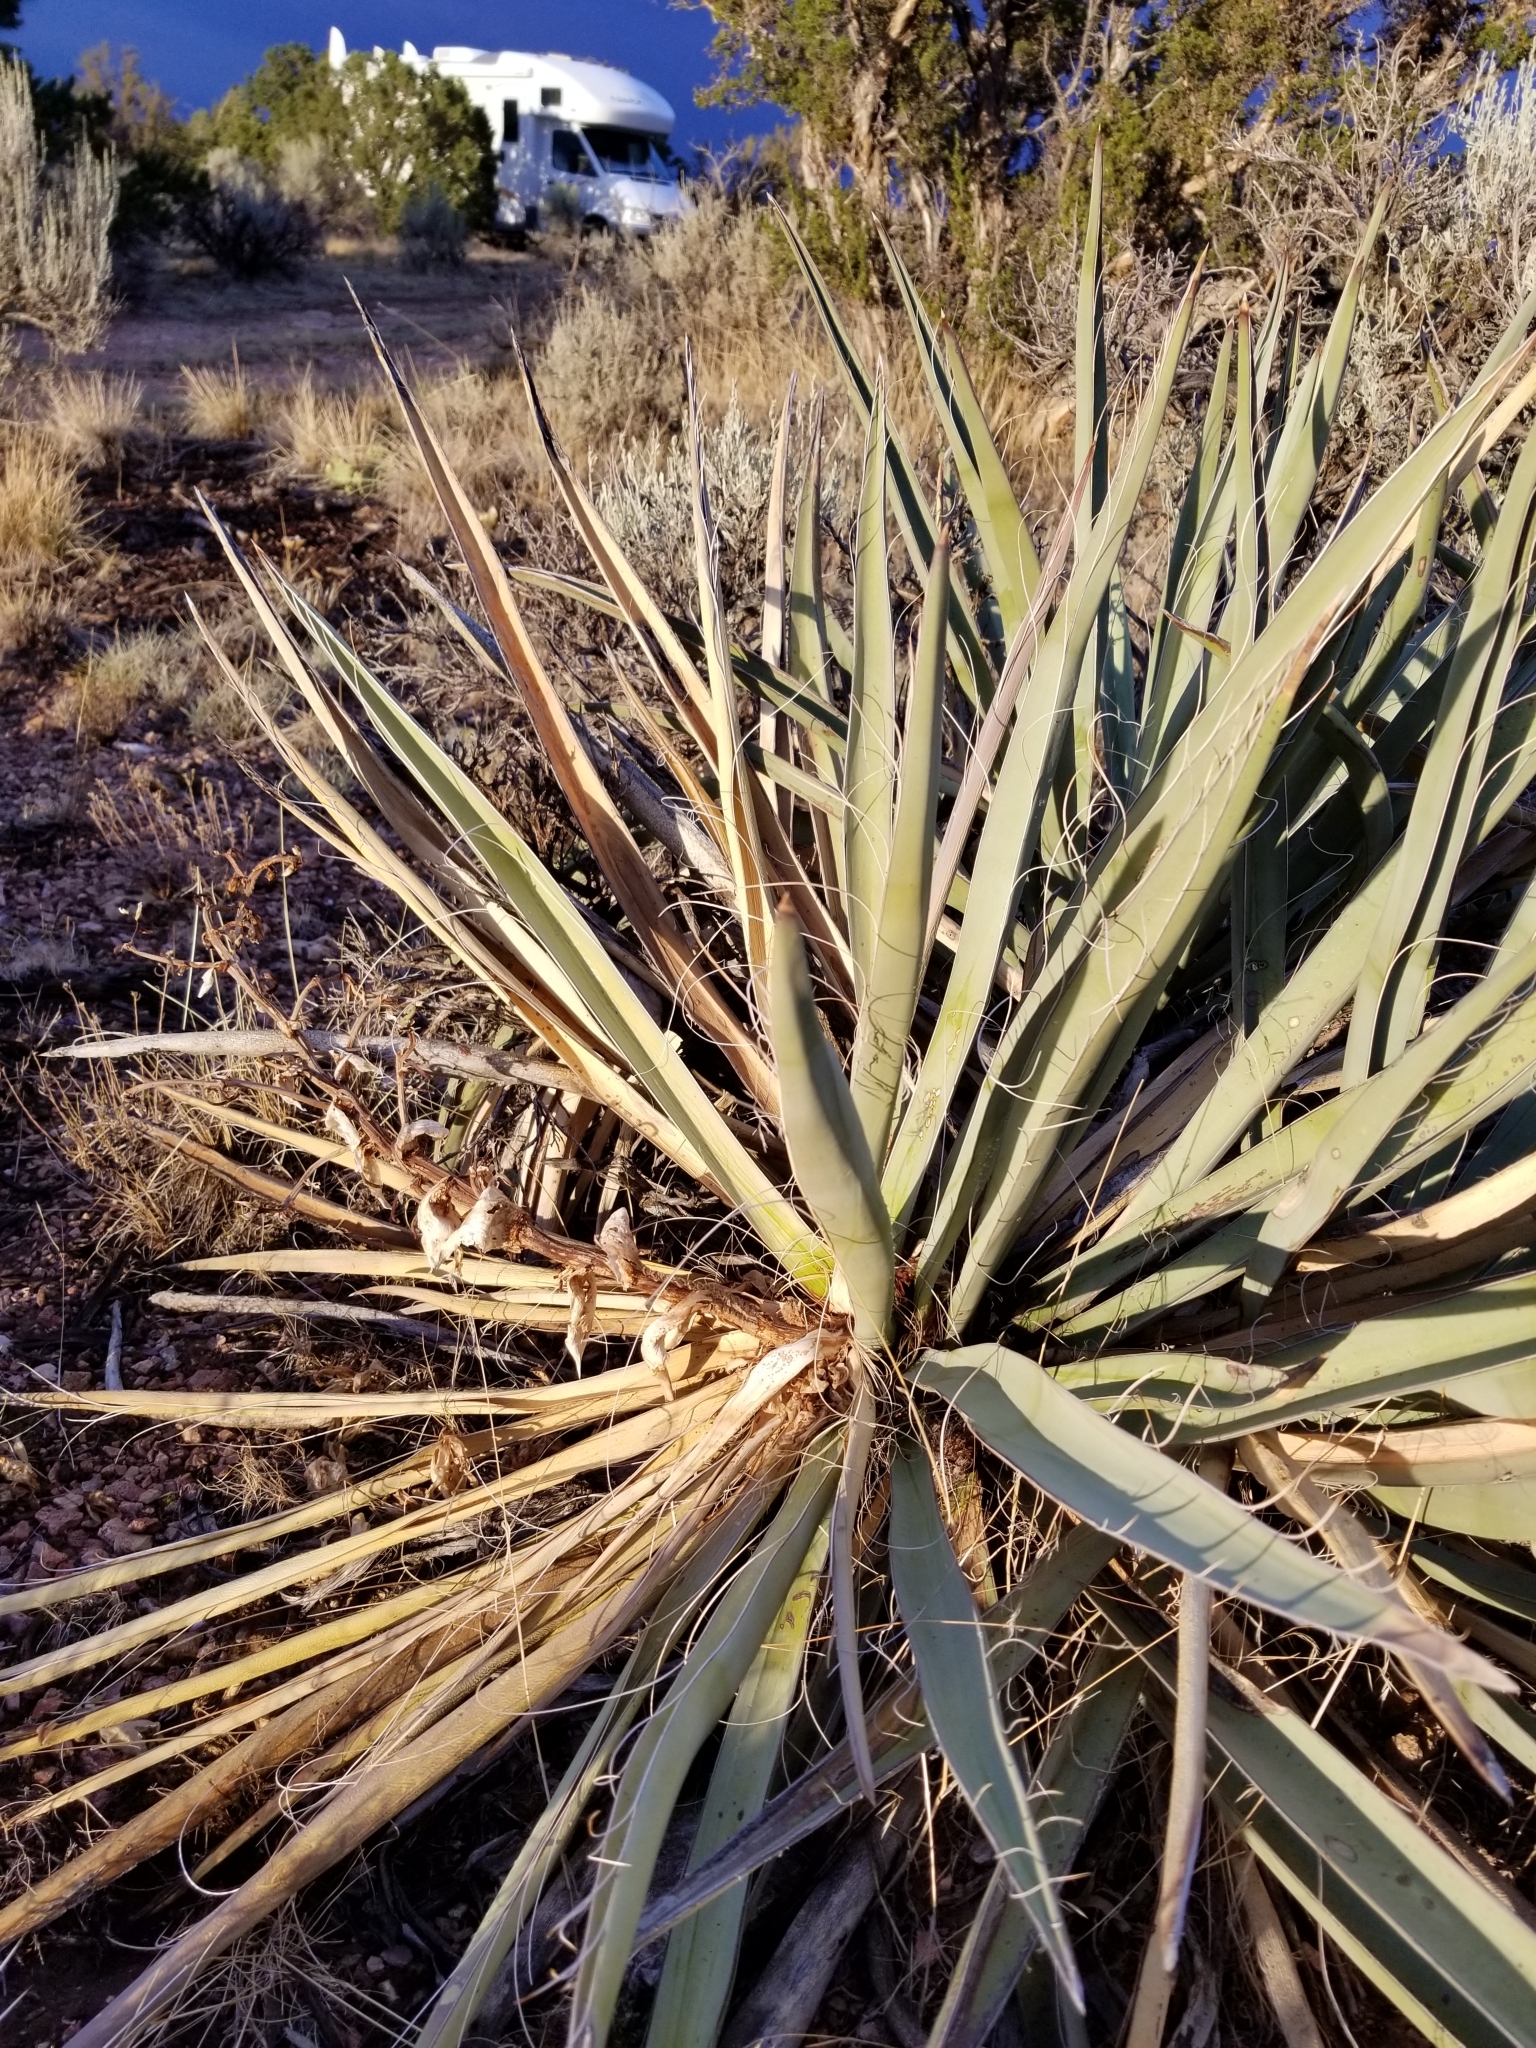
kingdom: Plantae
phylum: Tracheophyta
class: Liliopsida
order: Asparagales
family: Asparagaceae
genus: Yucca
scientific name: Yucca baccata
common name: Banana yucca
